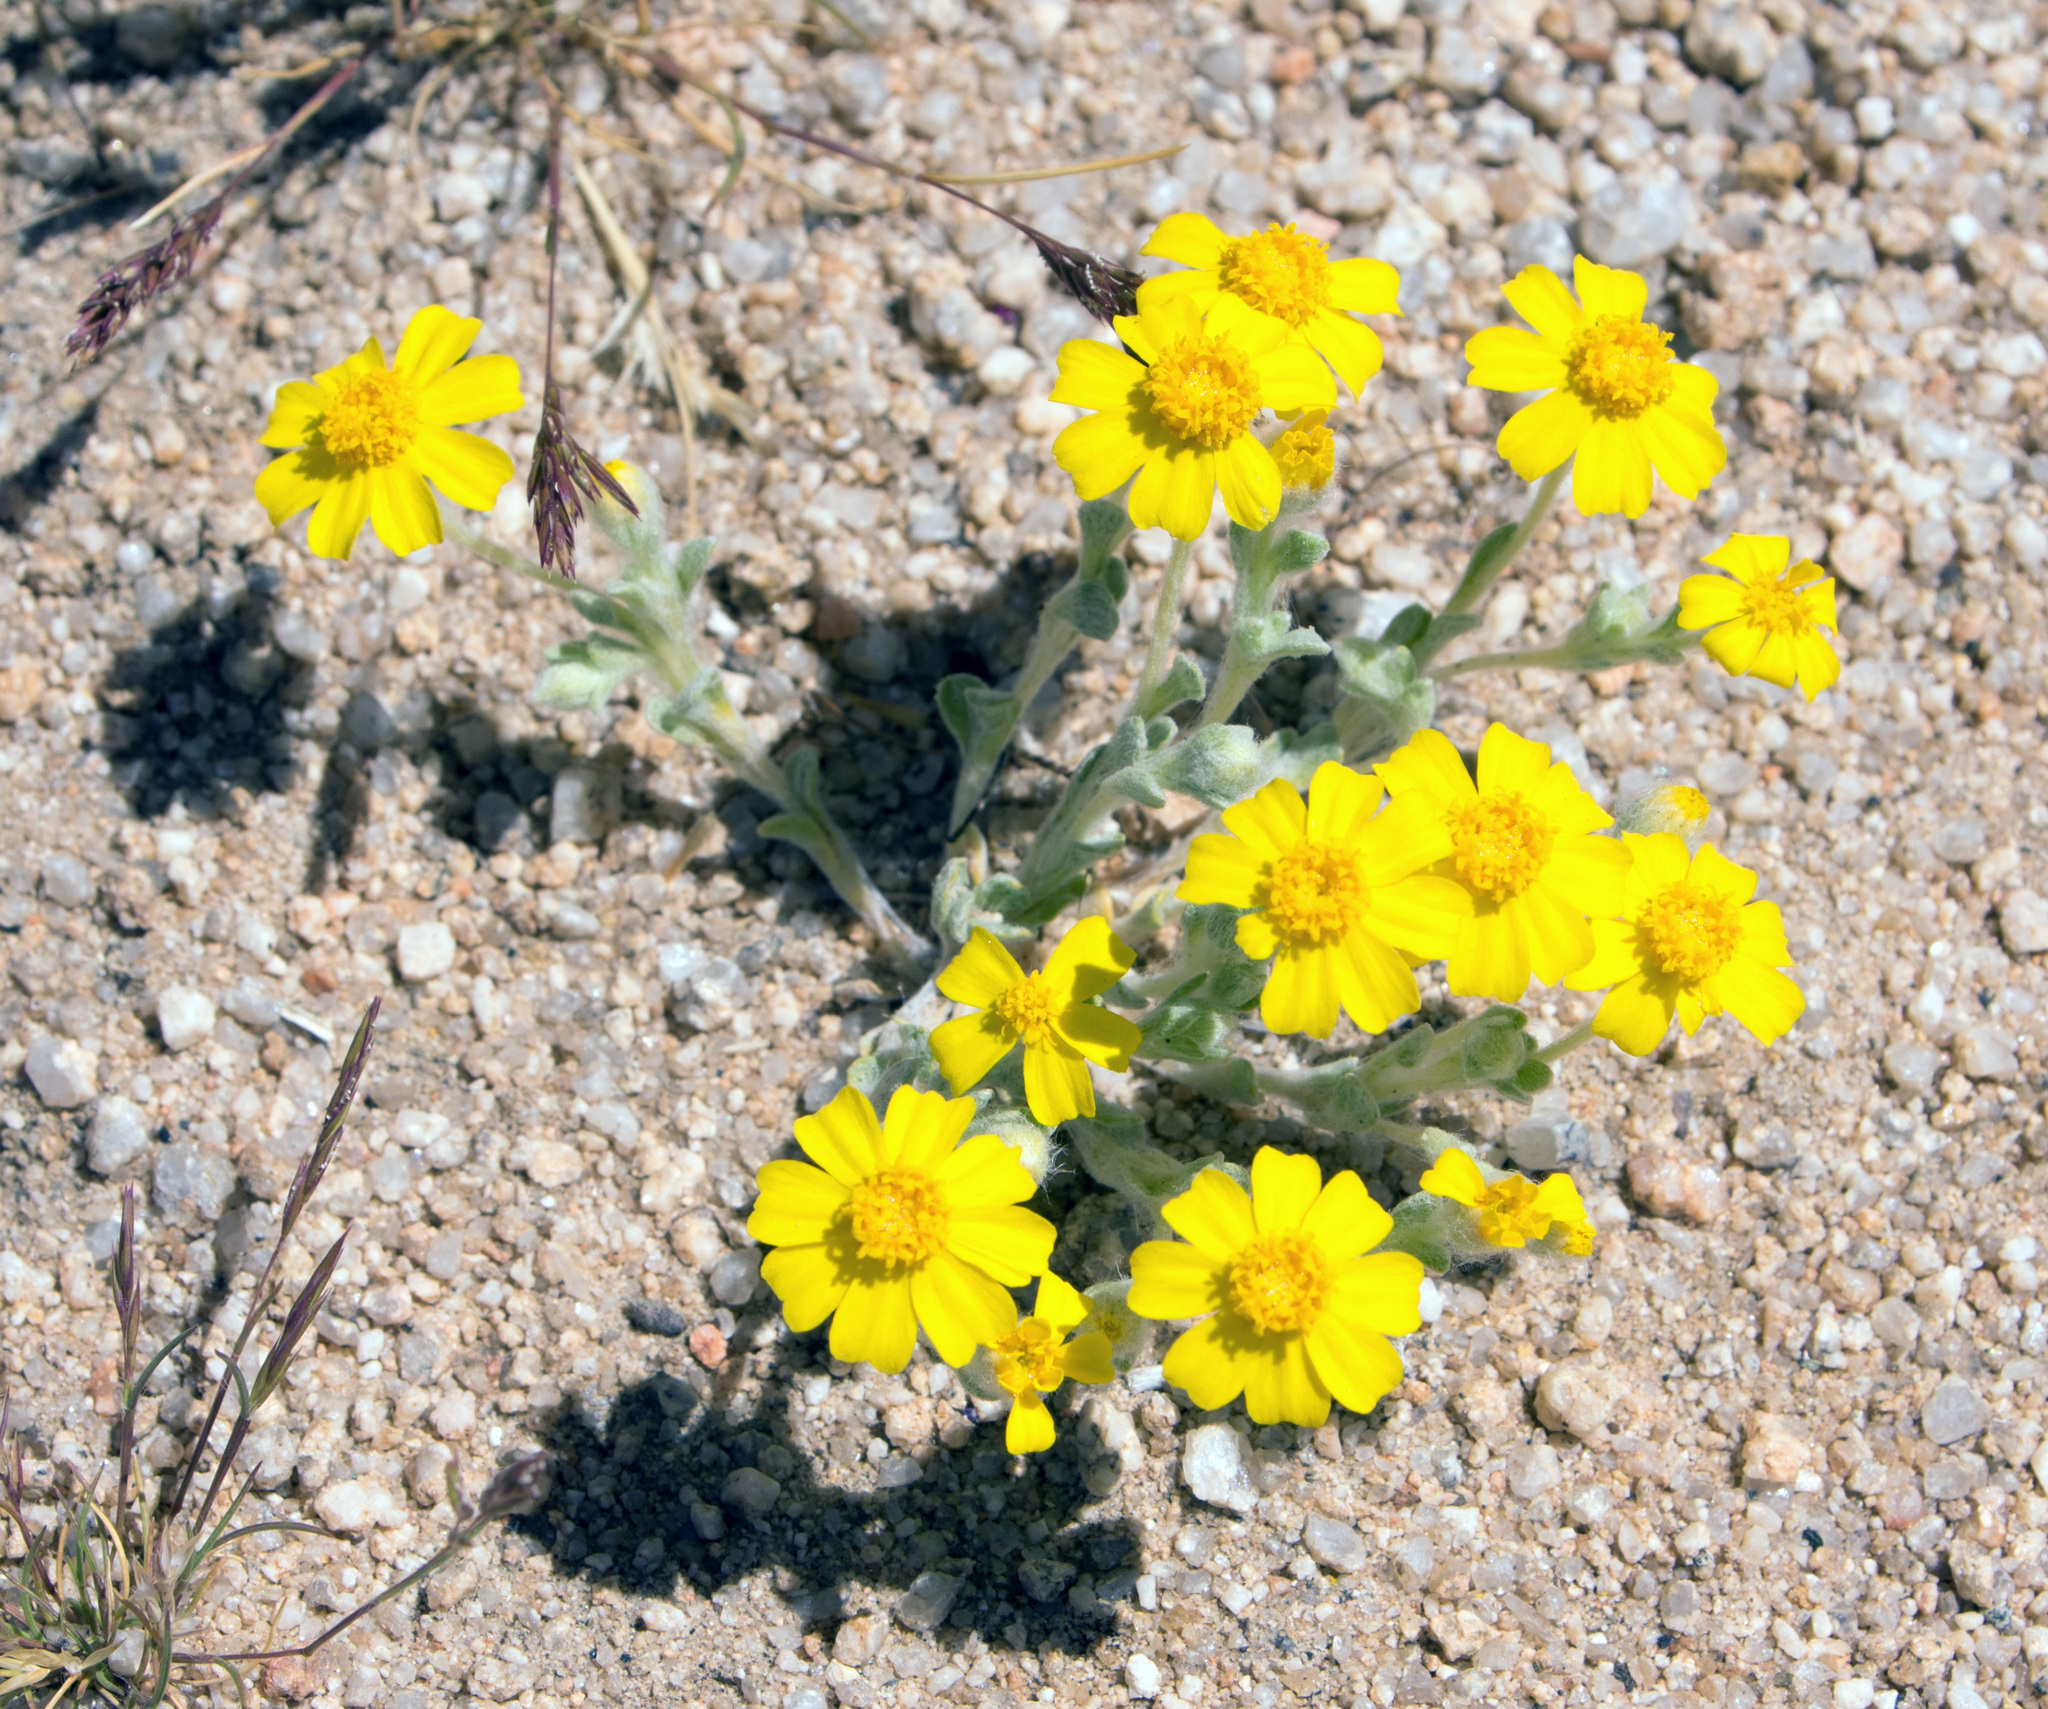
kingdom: Plantae
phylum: Tracheophyta
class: Magnoliopsida
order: Asterales
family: Asteraceae
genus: Eriophyllum
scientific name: Eriophyllum wallacei
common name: Wallace's woolly daisy
